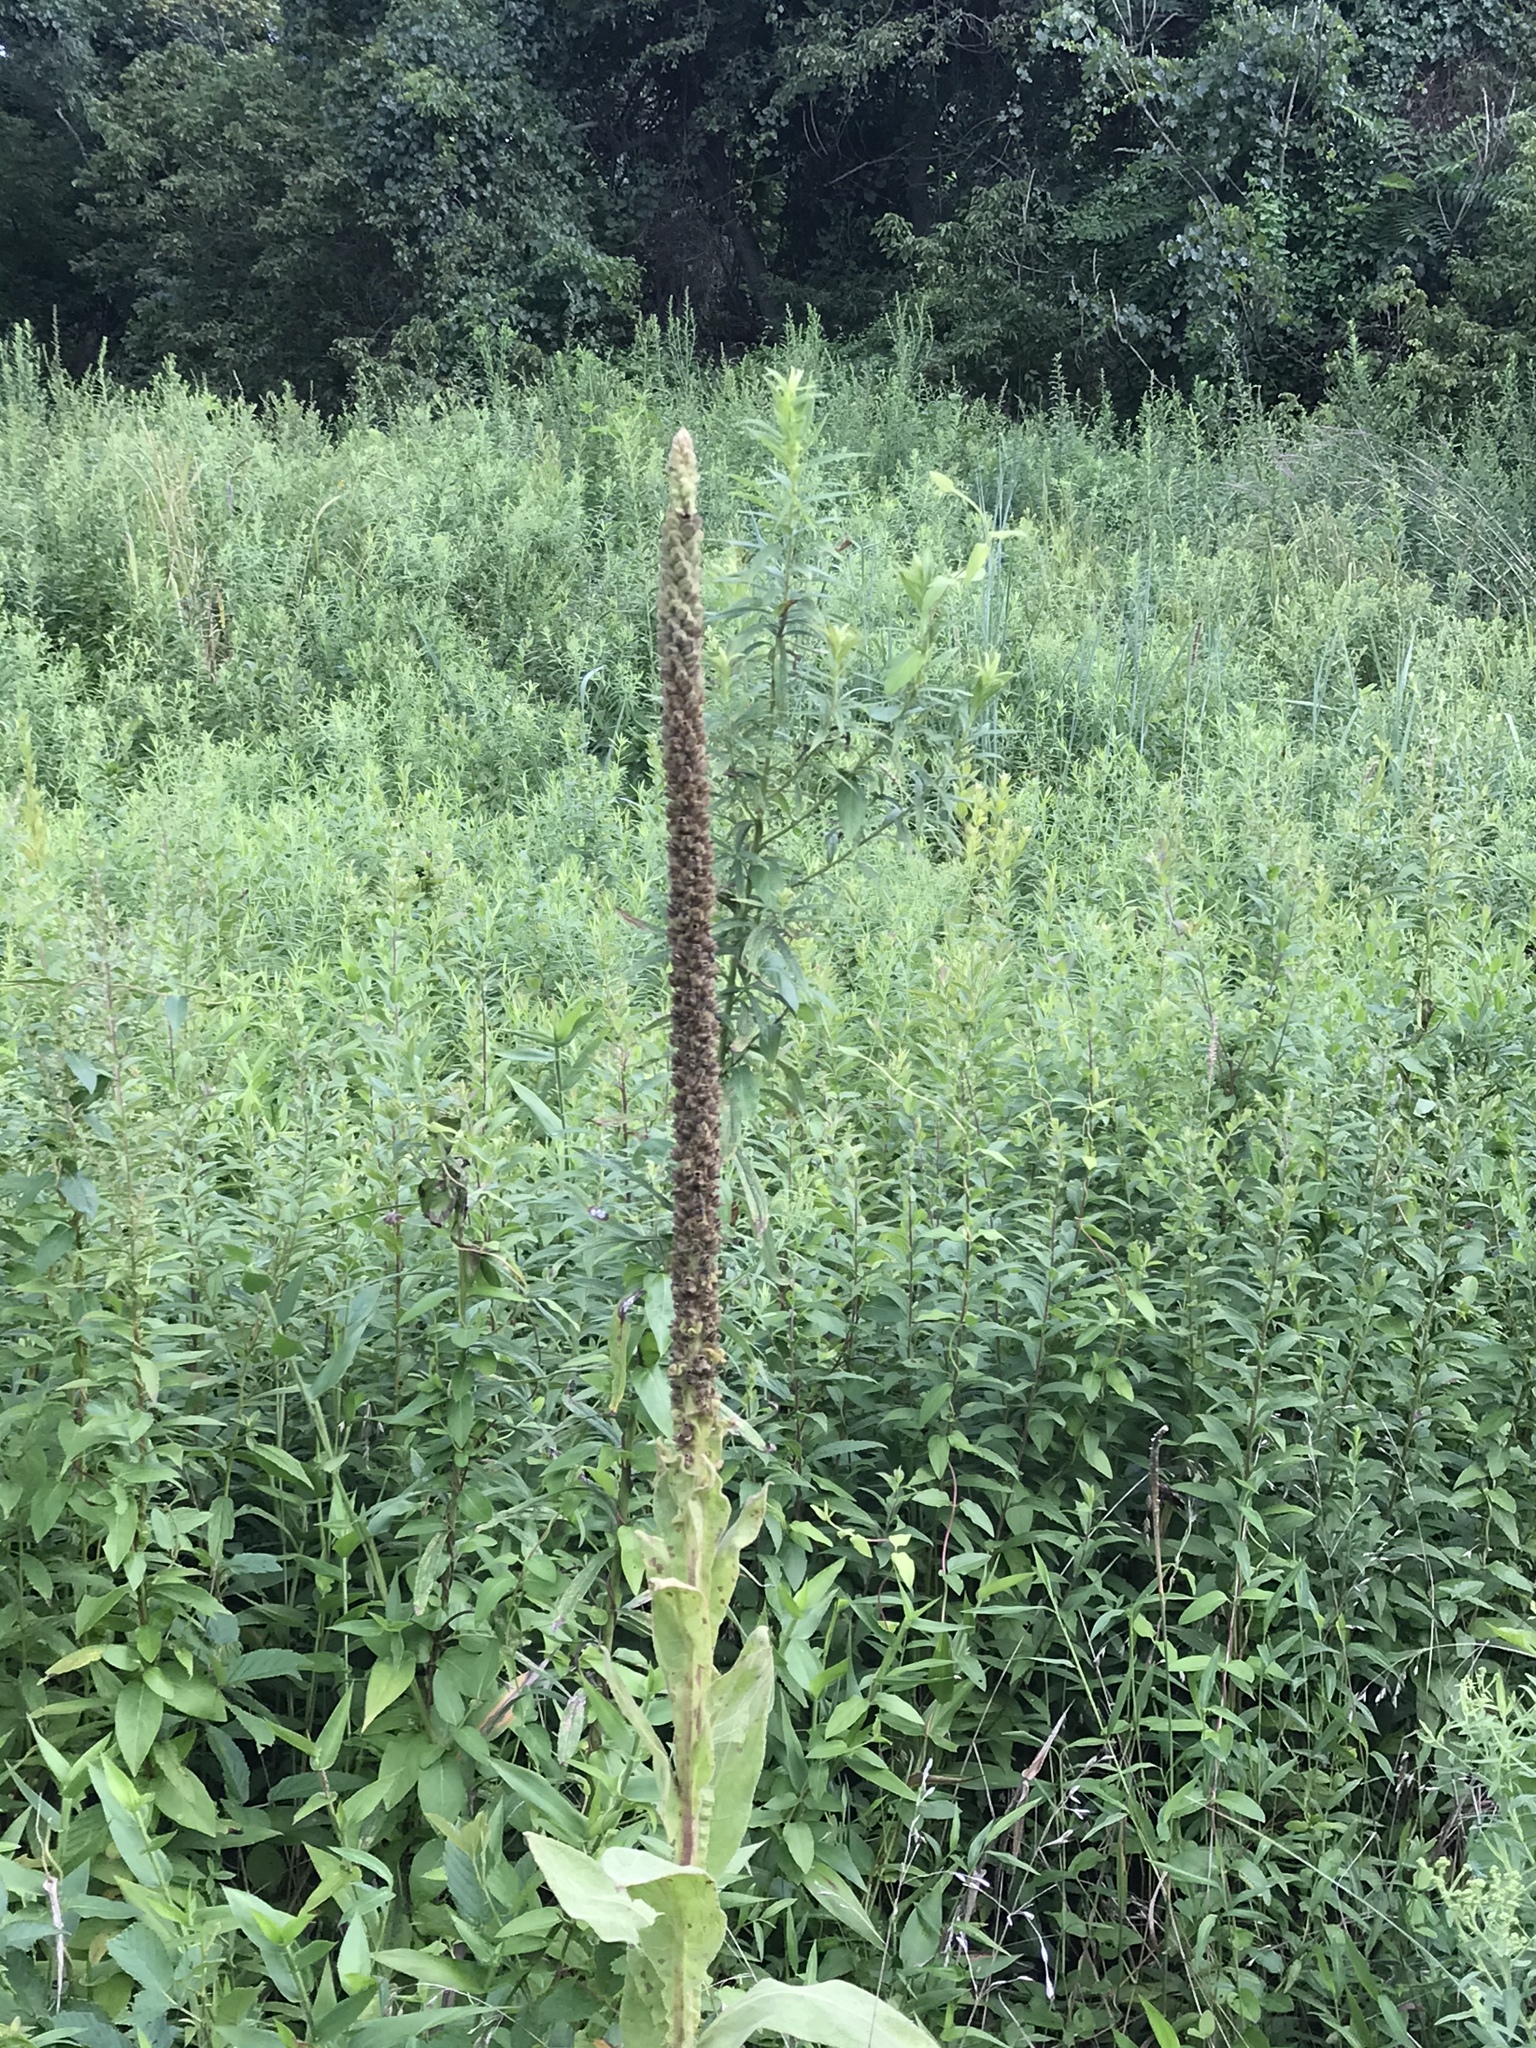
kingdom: Plantae
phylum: Tracheophyta
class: Magnoliopsida
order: Lamiales
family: Scrophulariaceae
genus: Verbascum
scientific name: Verbascum thapsus
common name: Common mullein
